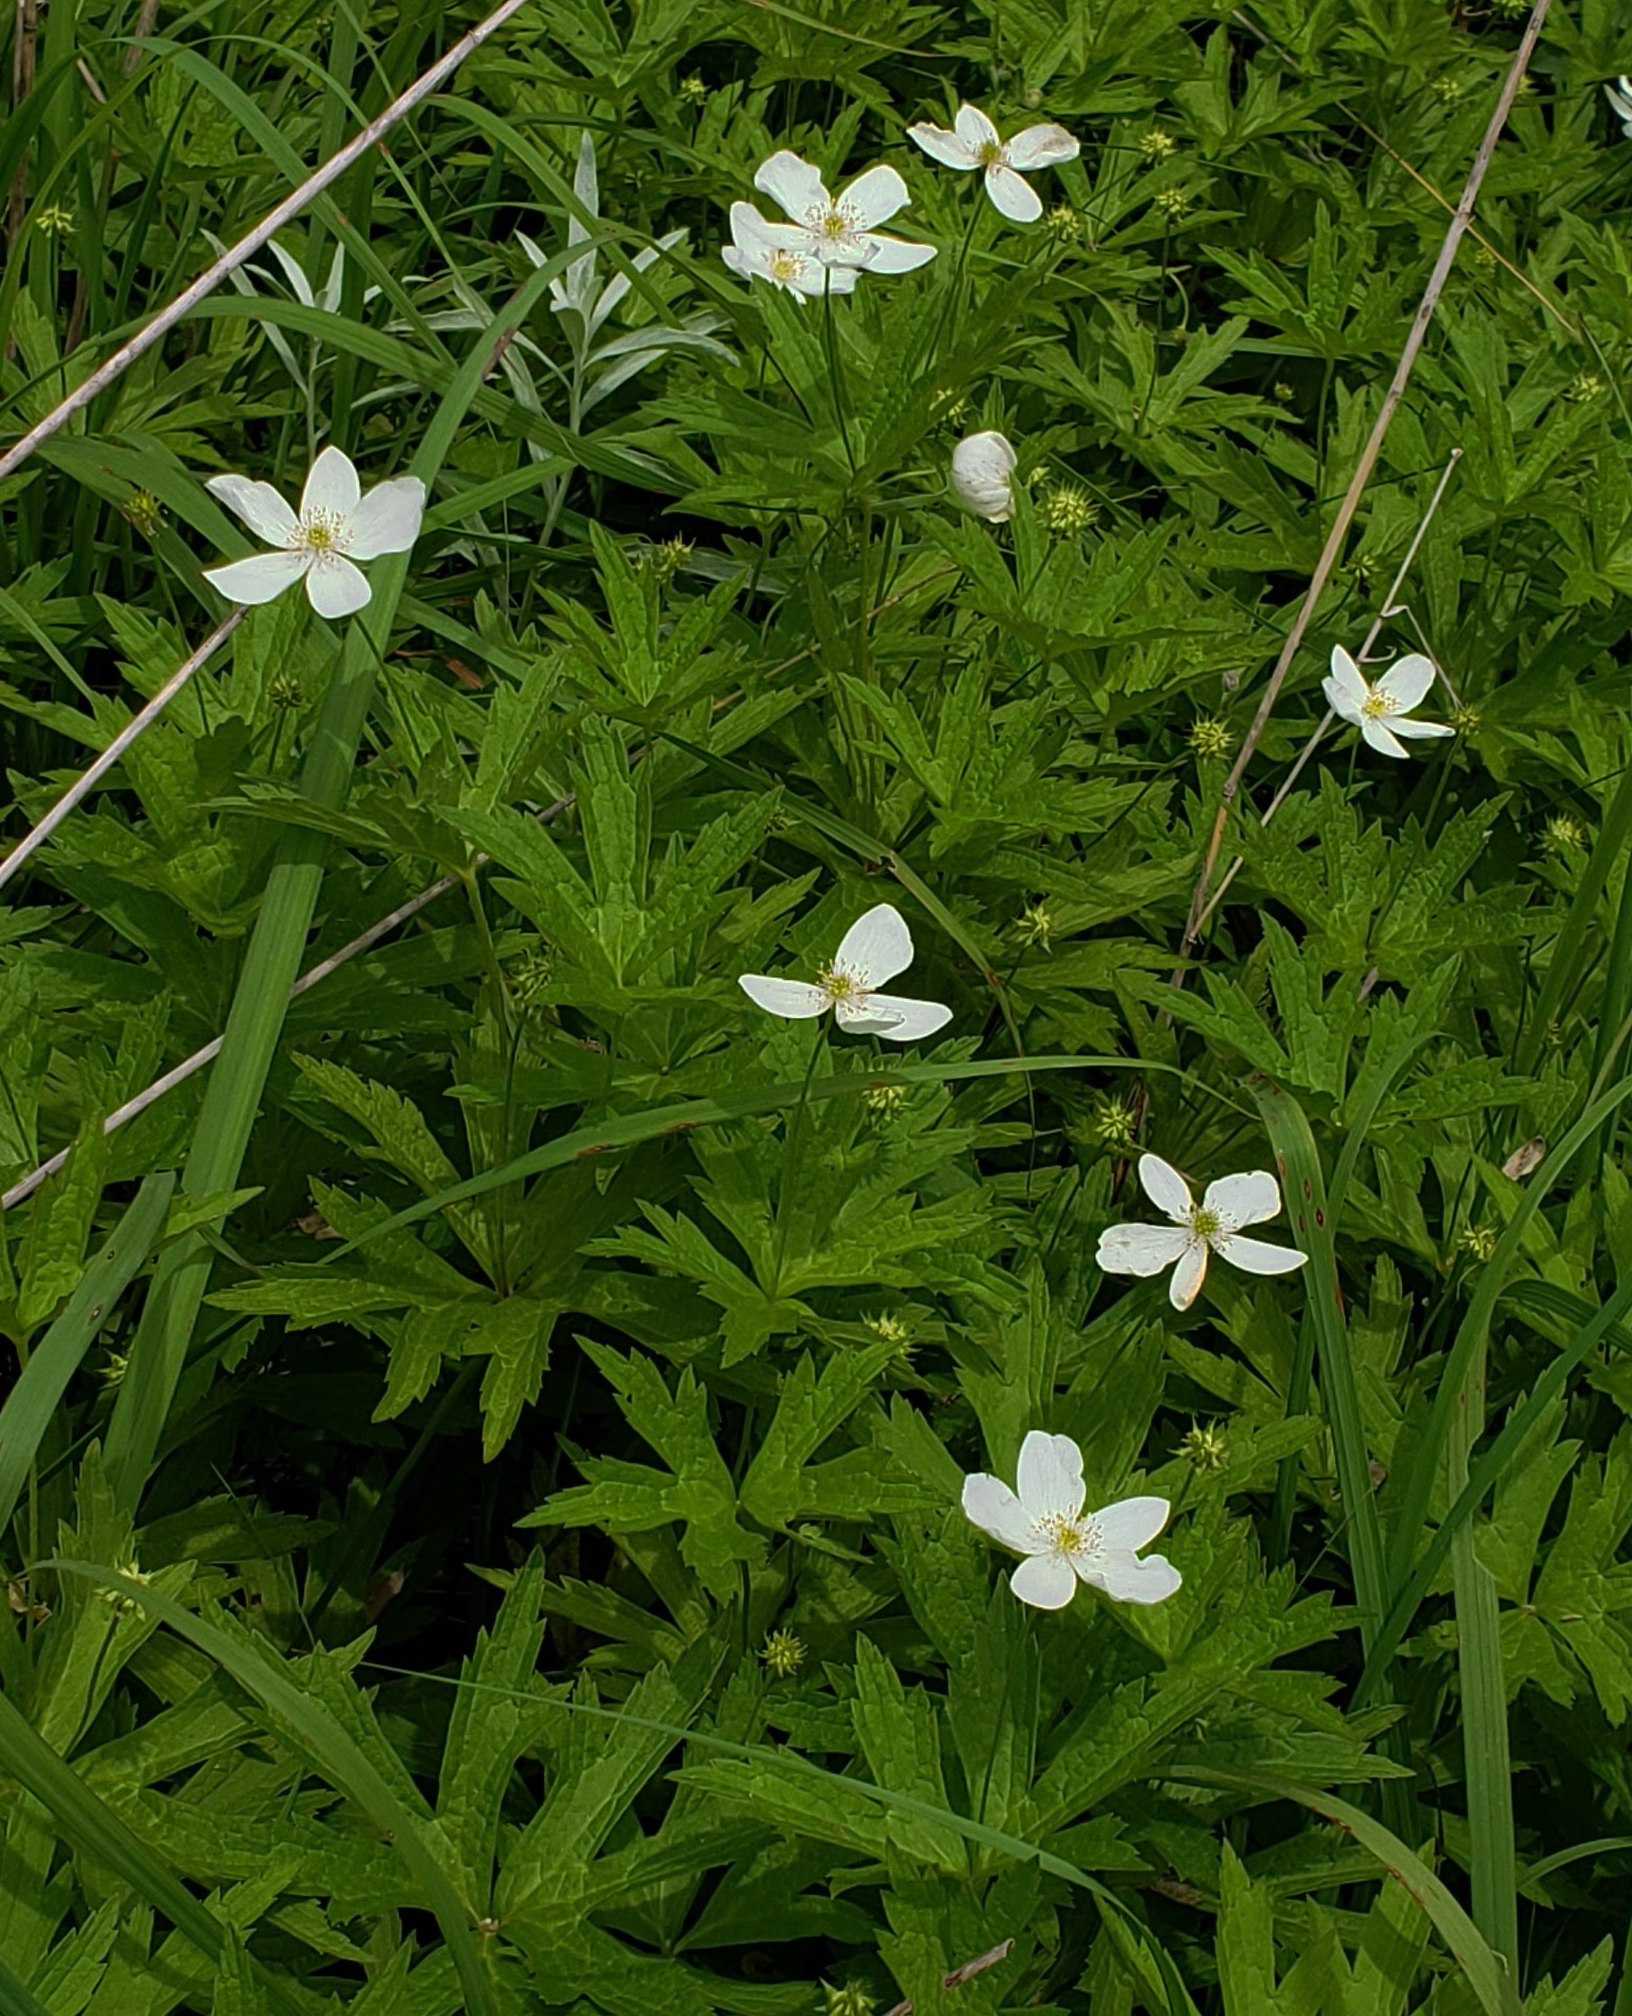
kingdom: Plantae
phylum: Tracheophyta
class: Magnoliopsida
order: Ranunculales
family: Ranunculaceae
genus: Anemonastrum
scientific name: Anemonastrum canadense
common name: Canada anemone
